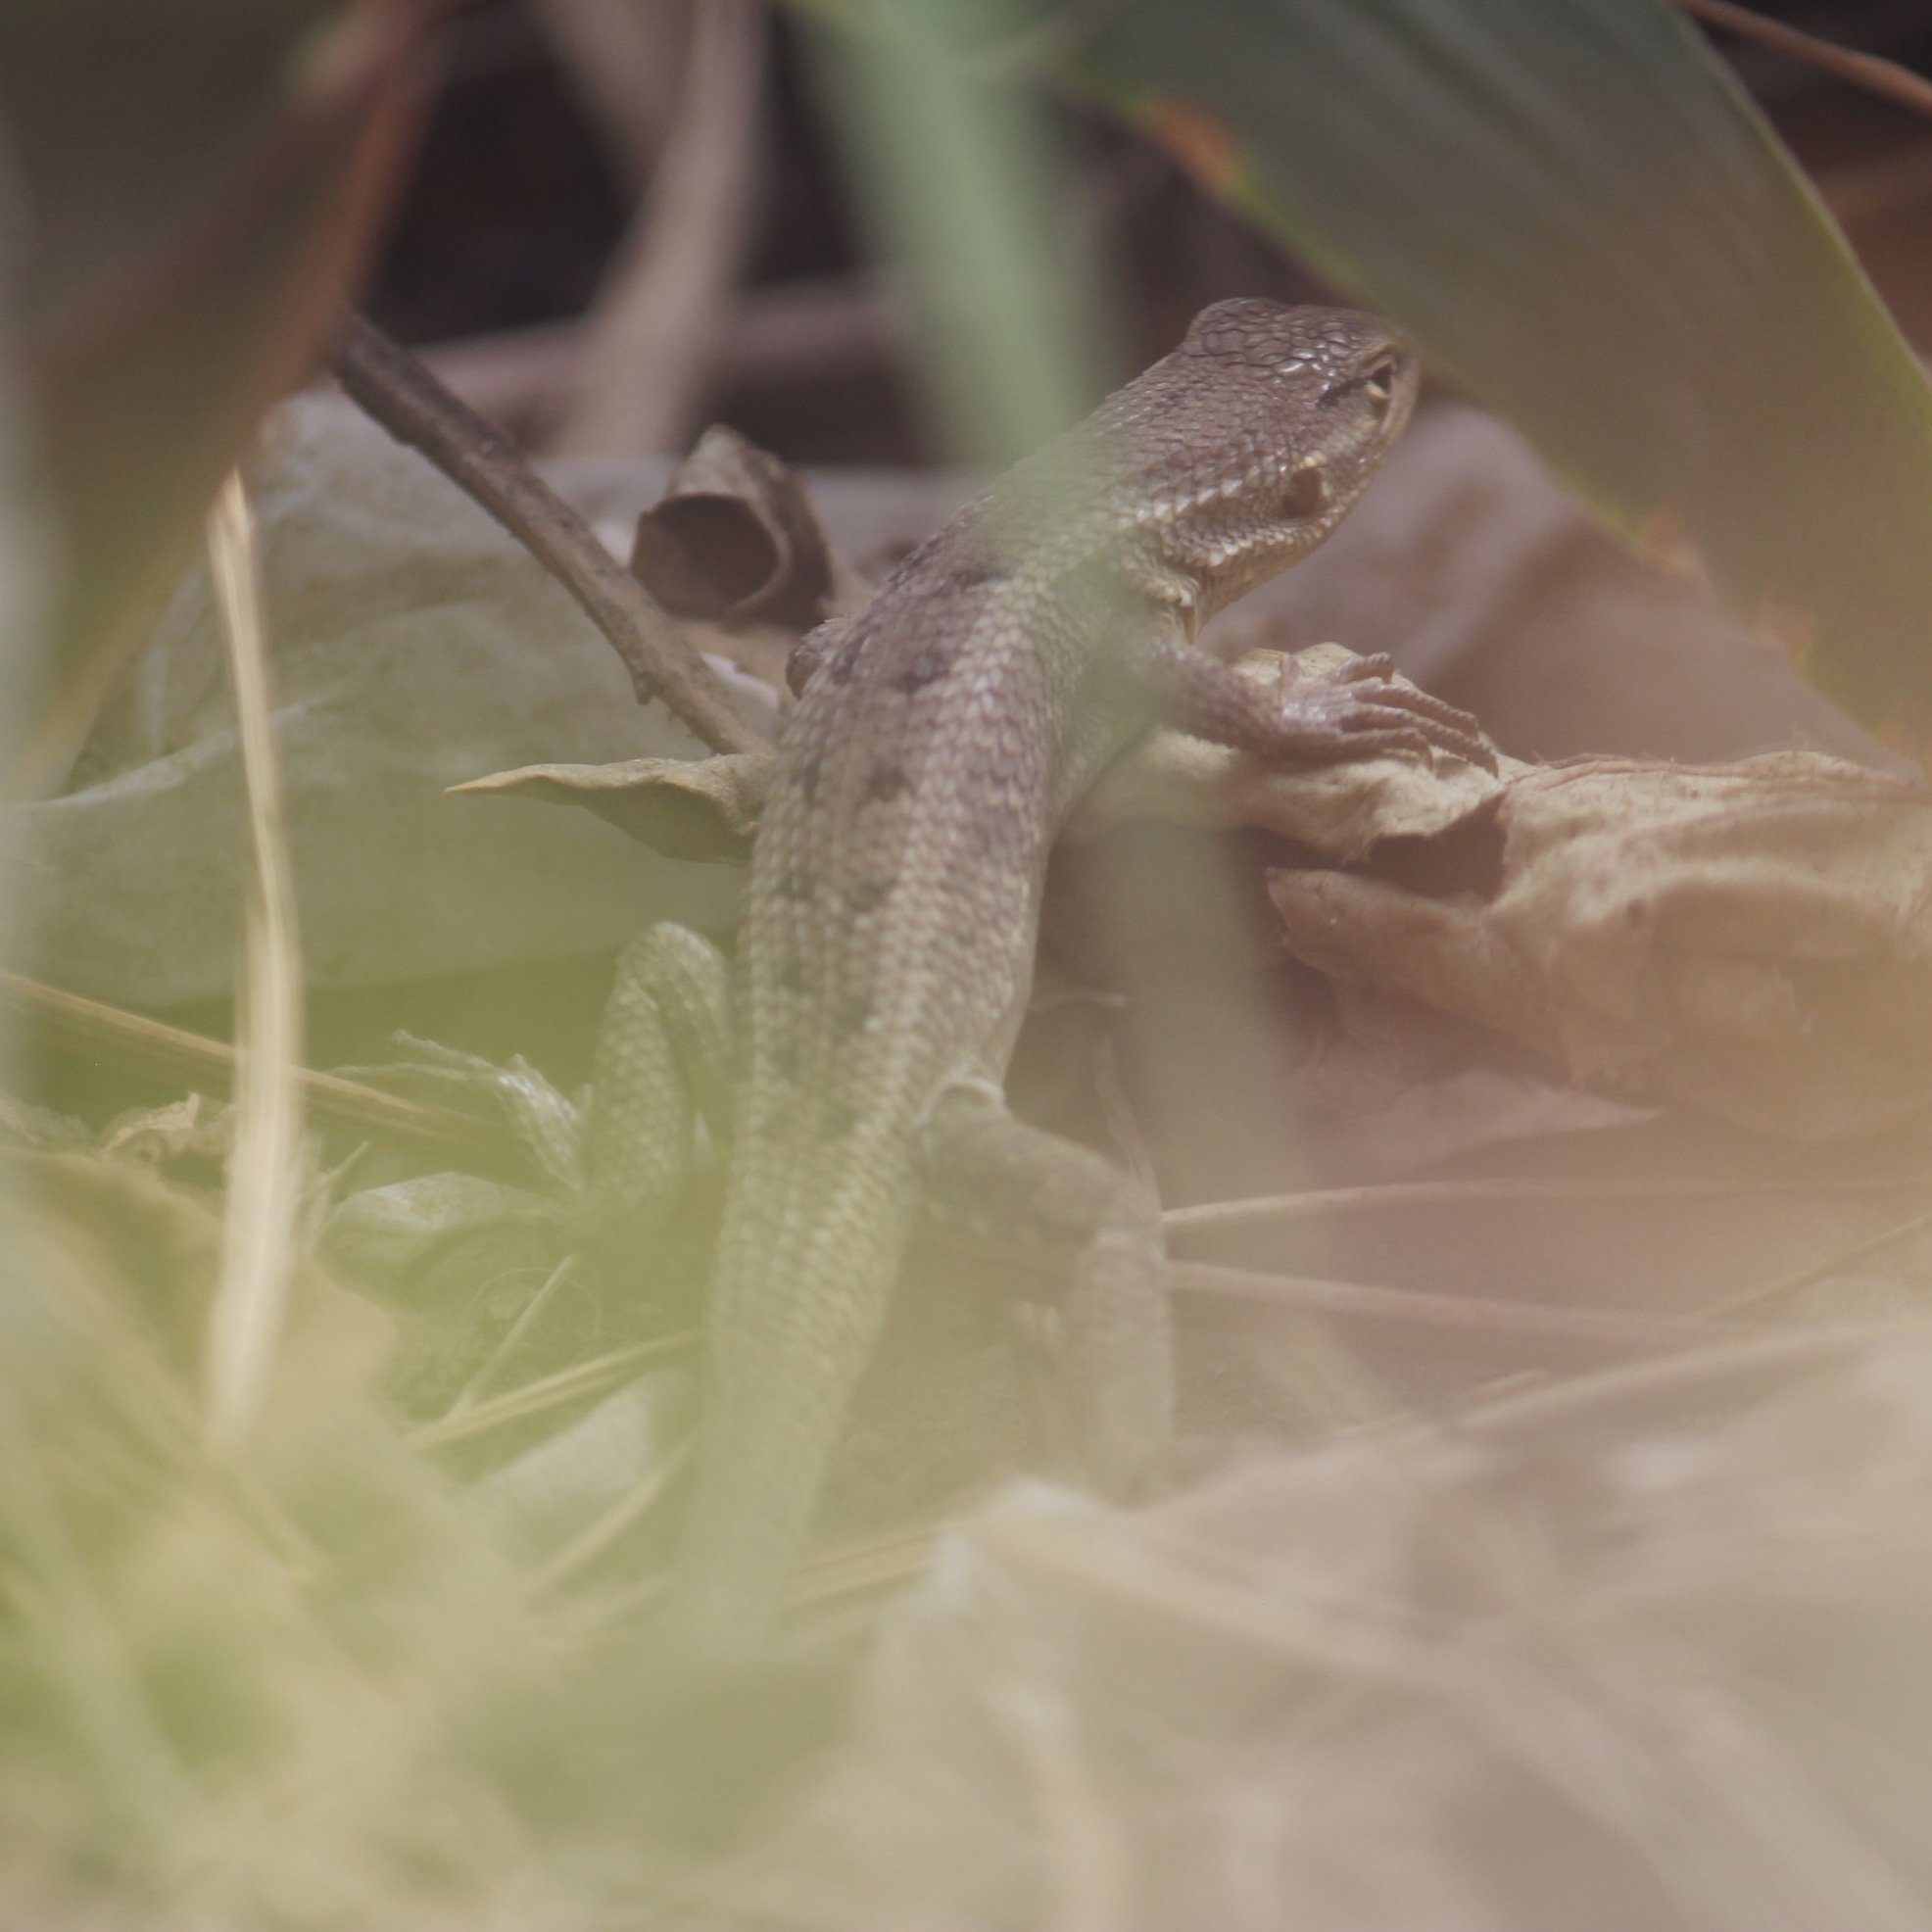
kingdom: Animalia
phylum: Chordata
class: Squamata
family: Tropiduridae
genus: Stenocercus
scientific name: Stenocercus modestus
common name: Modest whorltail iguana
